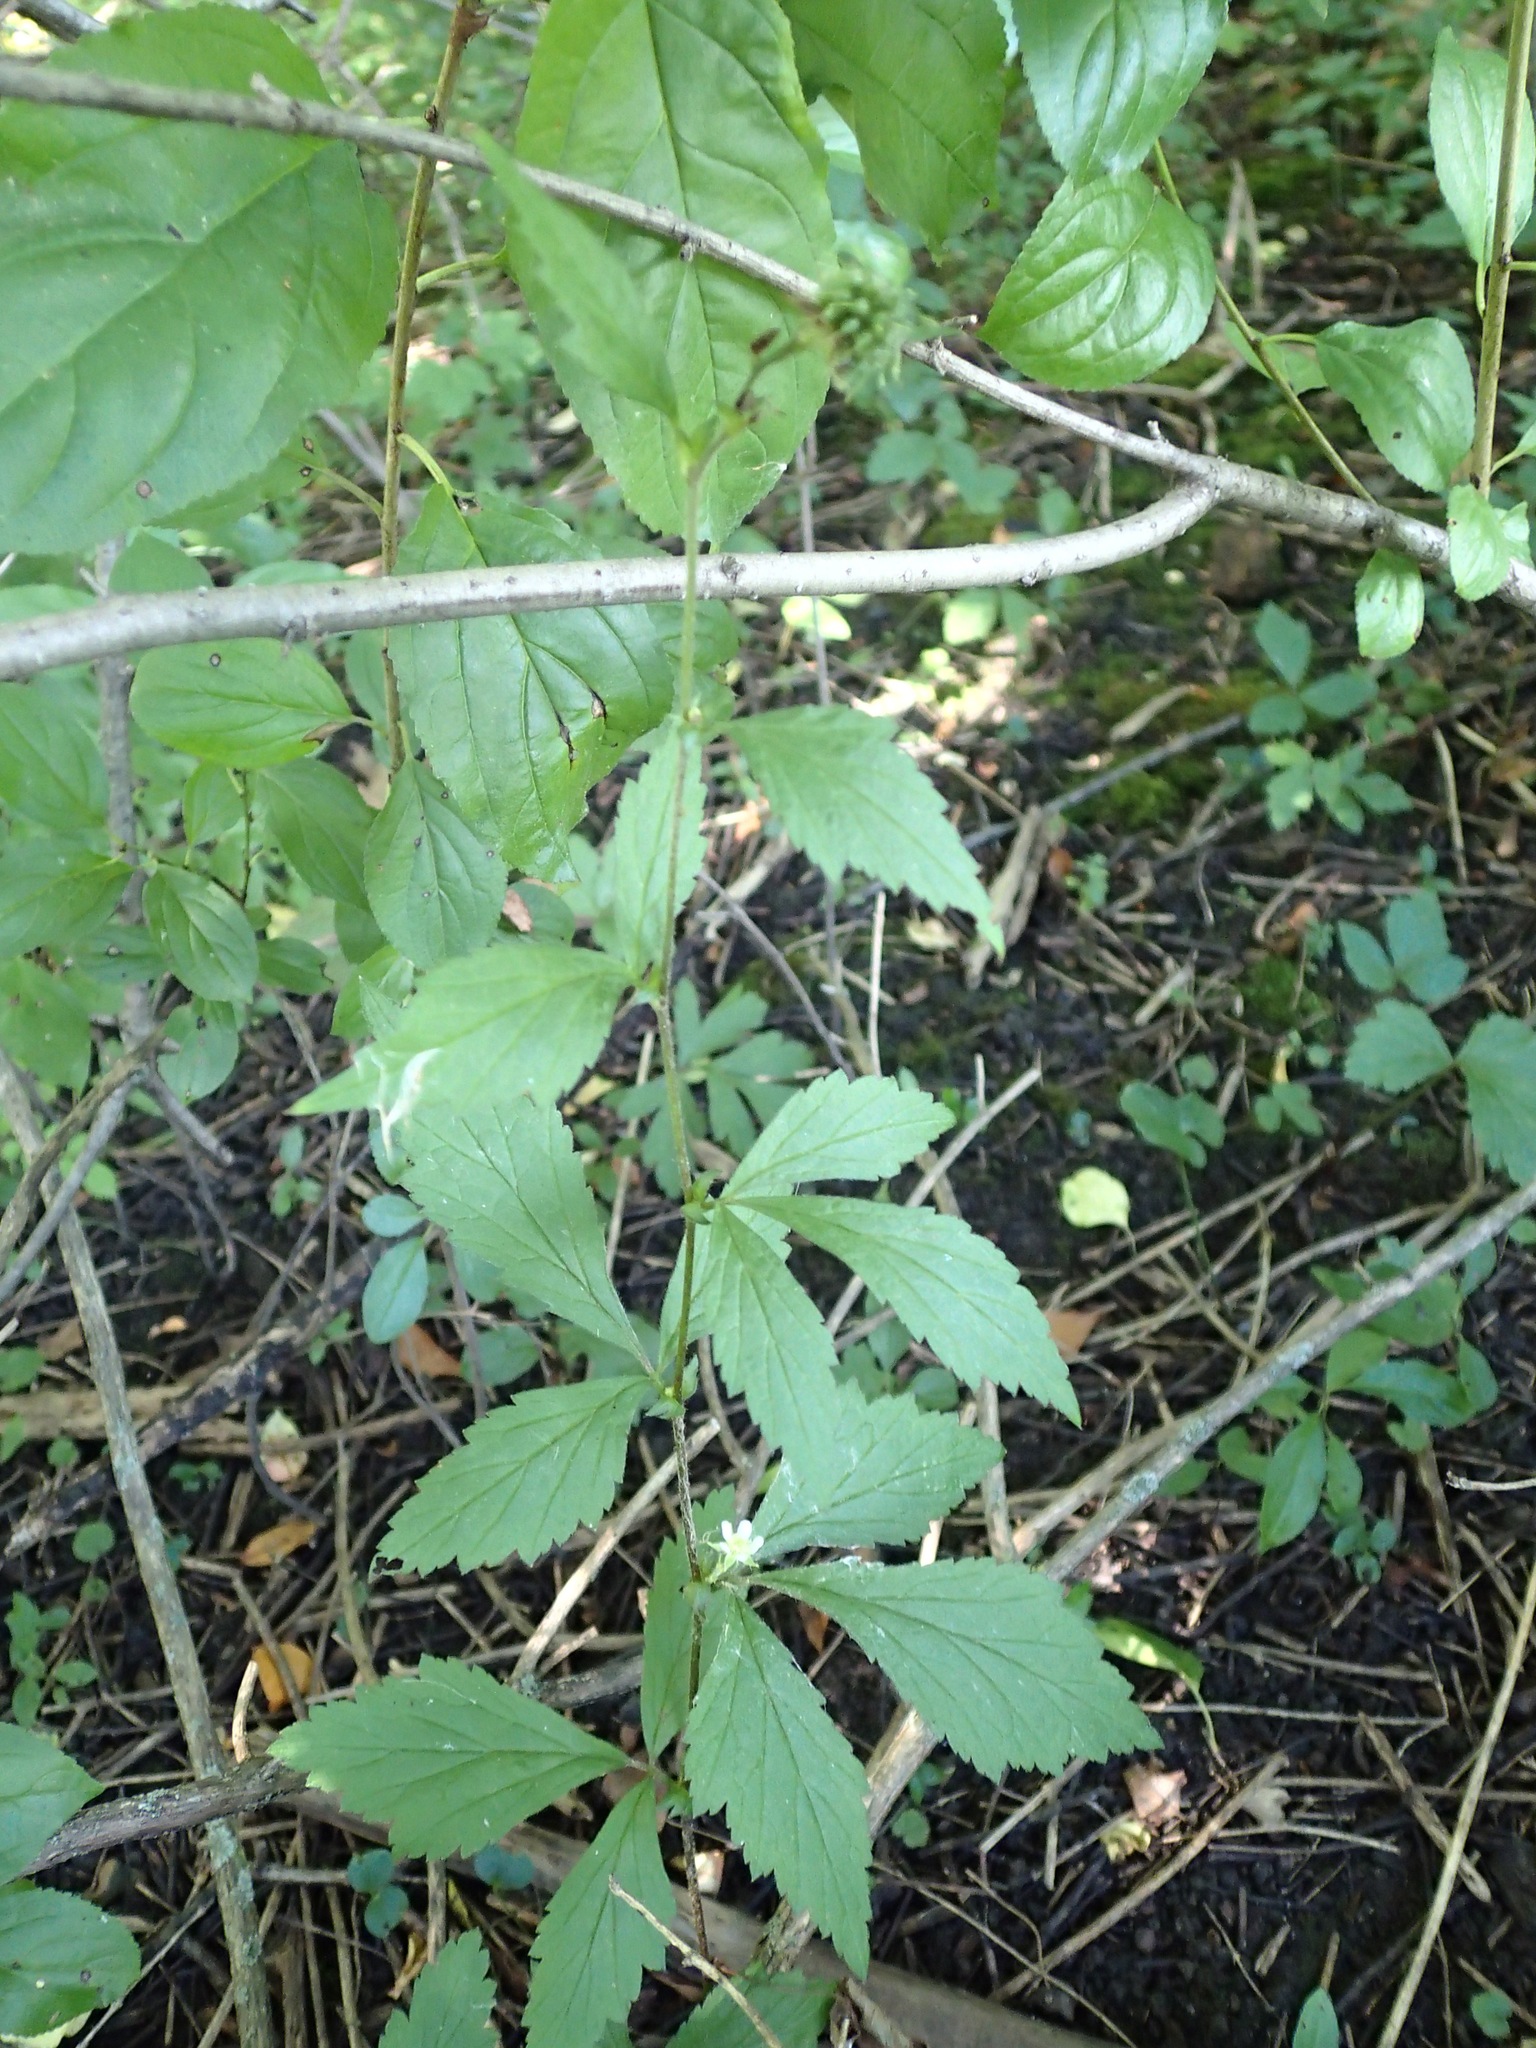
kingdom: Plantae
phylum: Tracheophyta
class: Magnoliopsida
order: Rosales
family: Rosaceae
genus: Geum
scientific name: Geum canadense
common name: White avens
